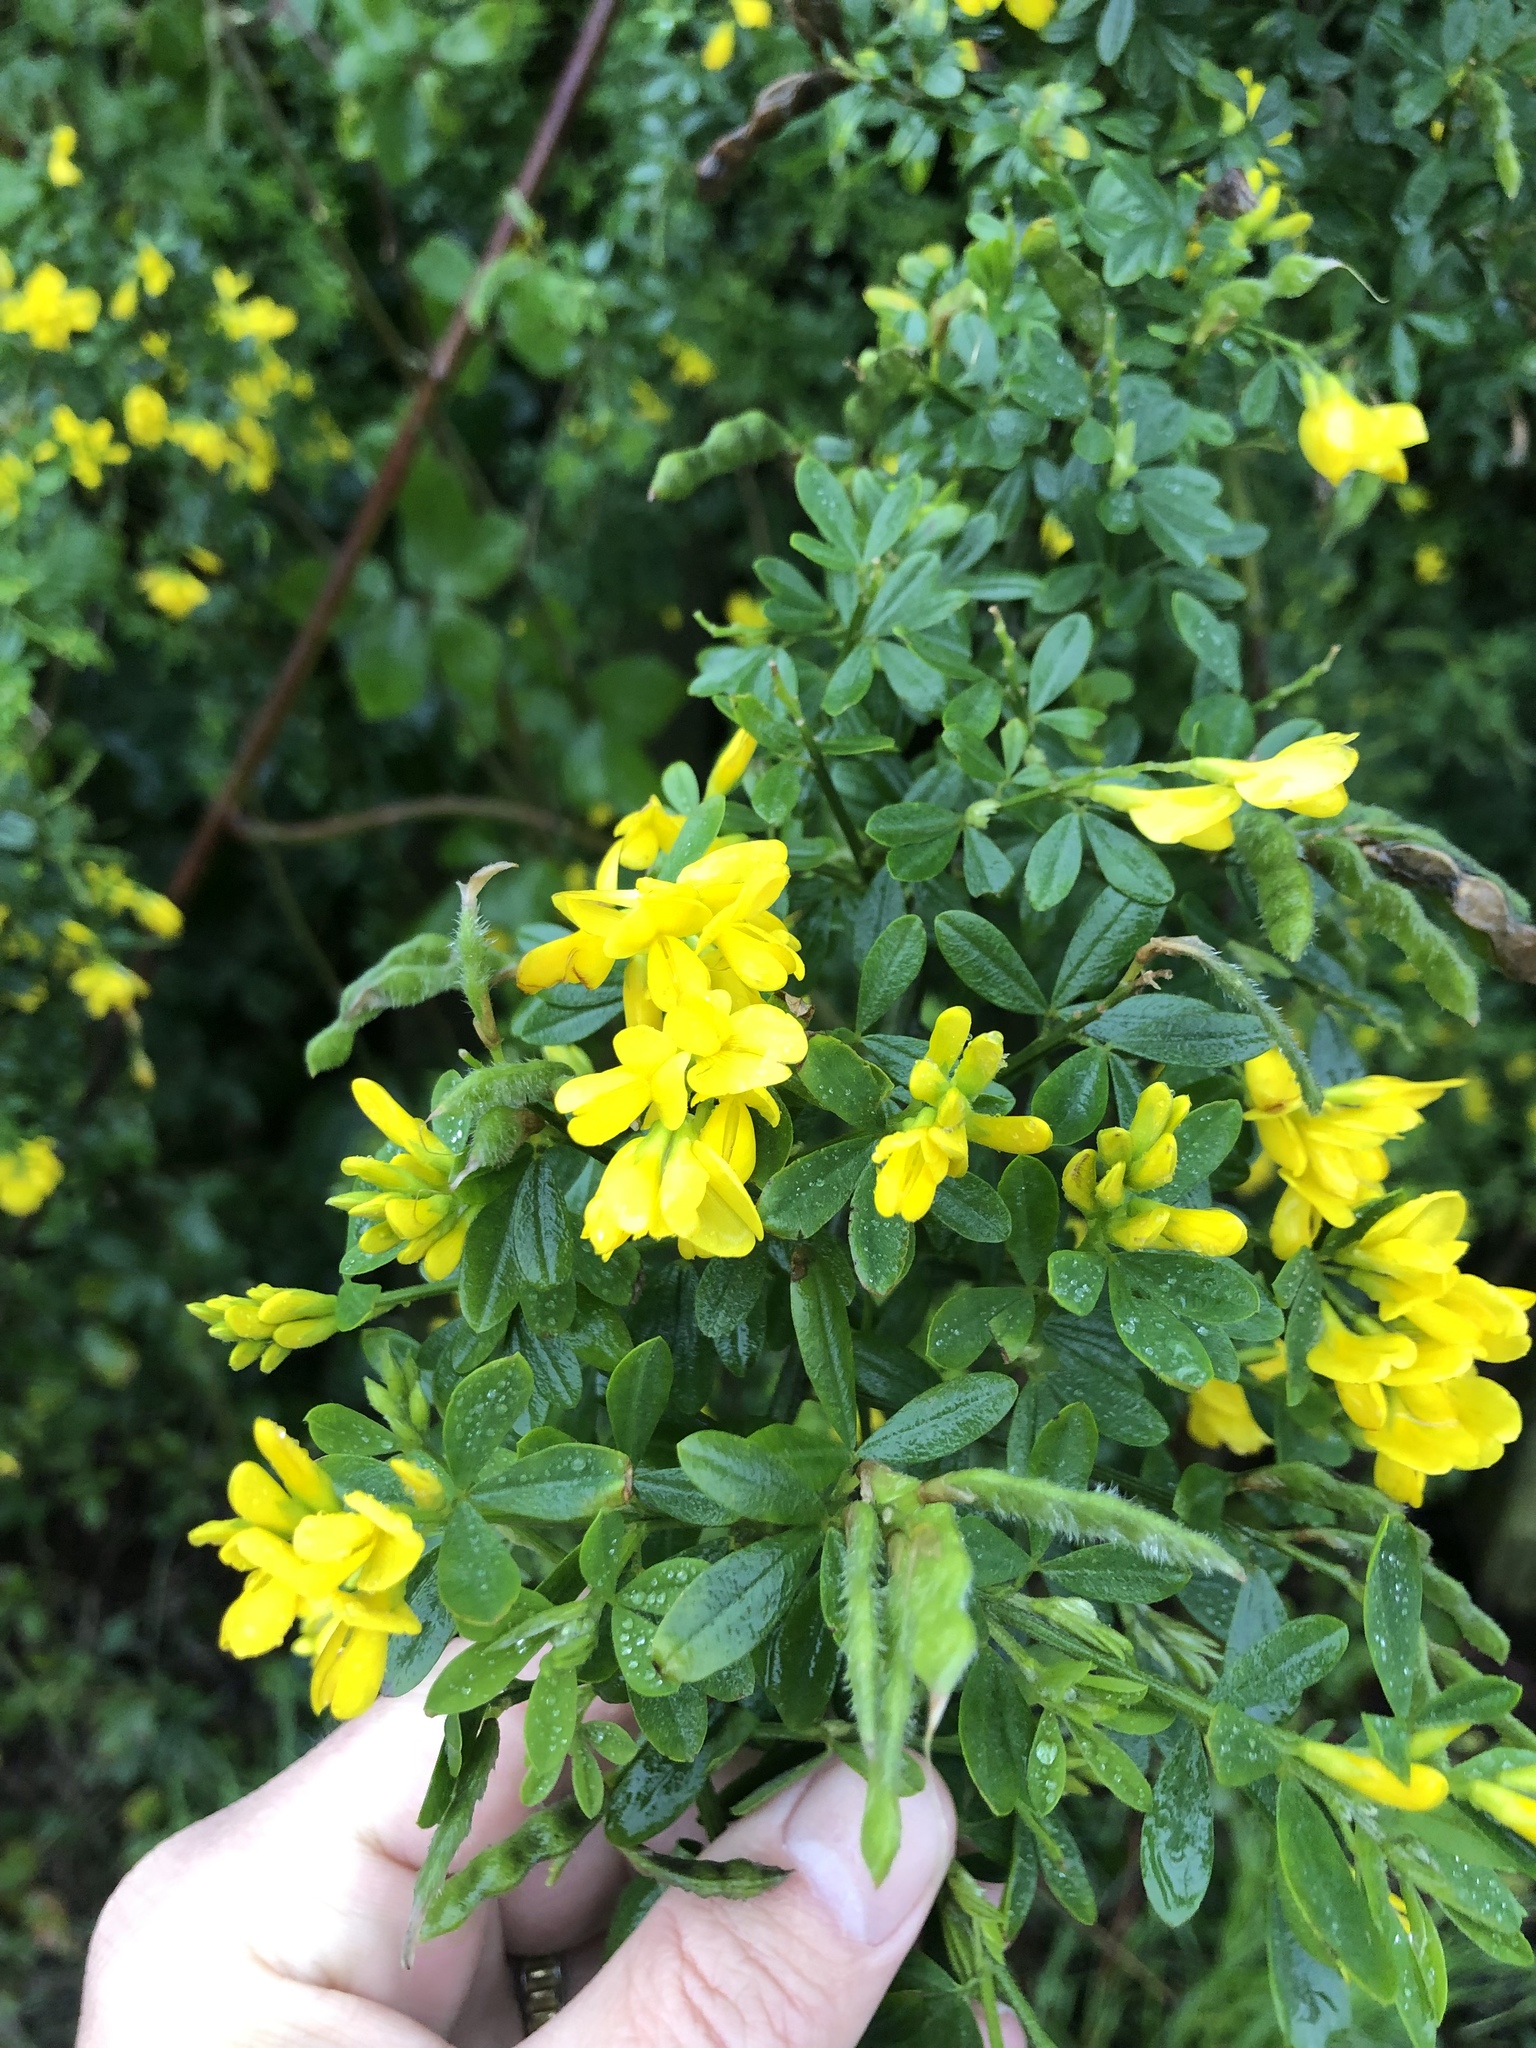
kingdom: Plantae
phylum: Tracheophyta
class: Magnoliopsida
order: Fabales
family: Fabaceae
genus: Genista
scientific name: Genista monspessulana
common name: Montpellier broom
